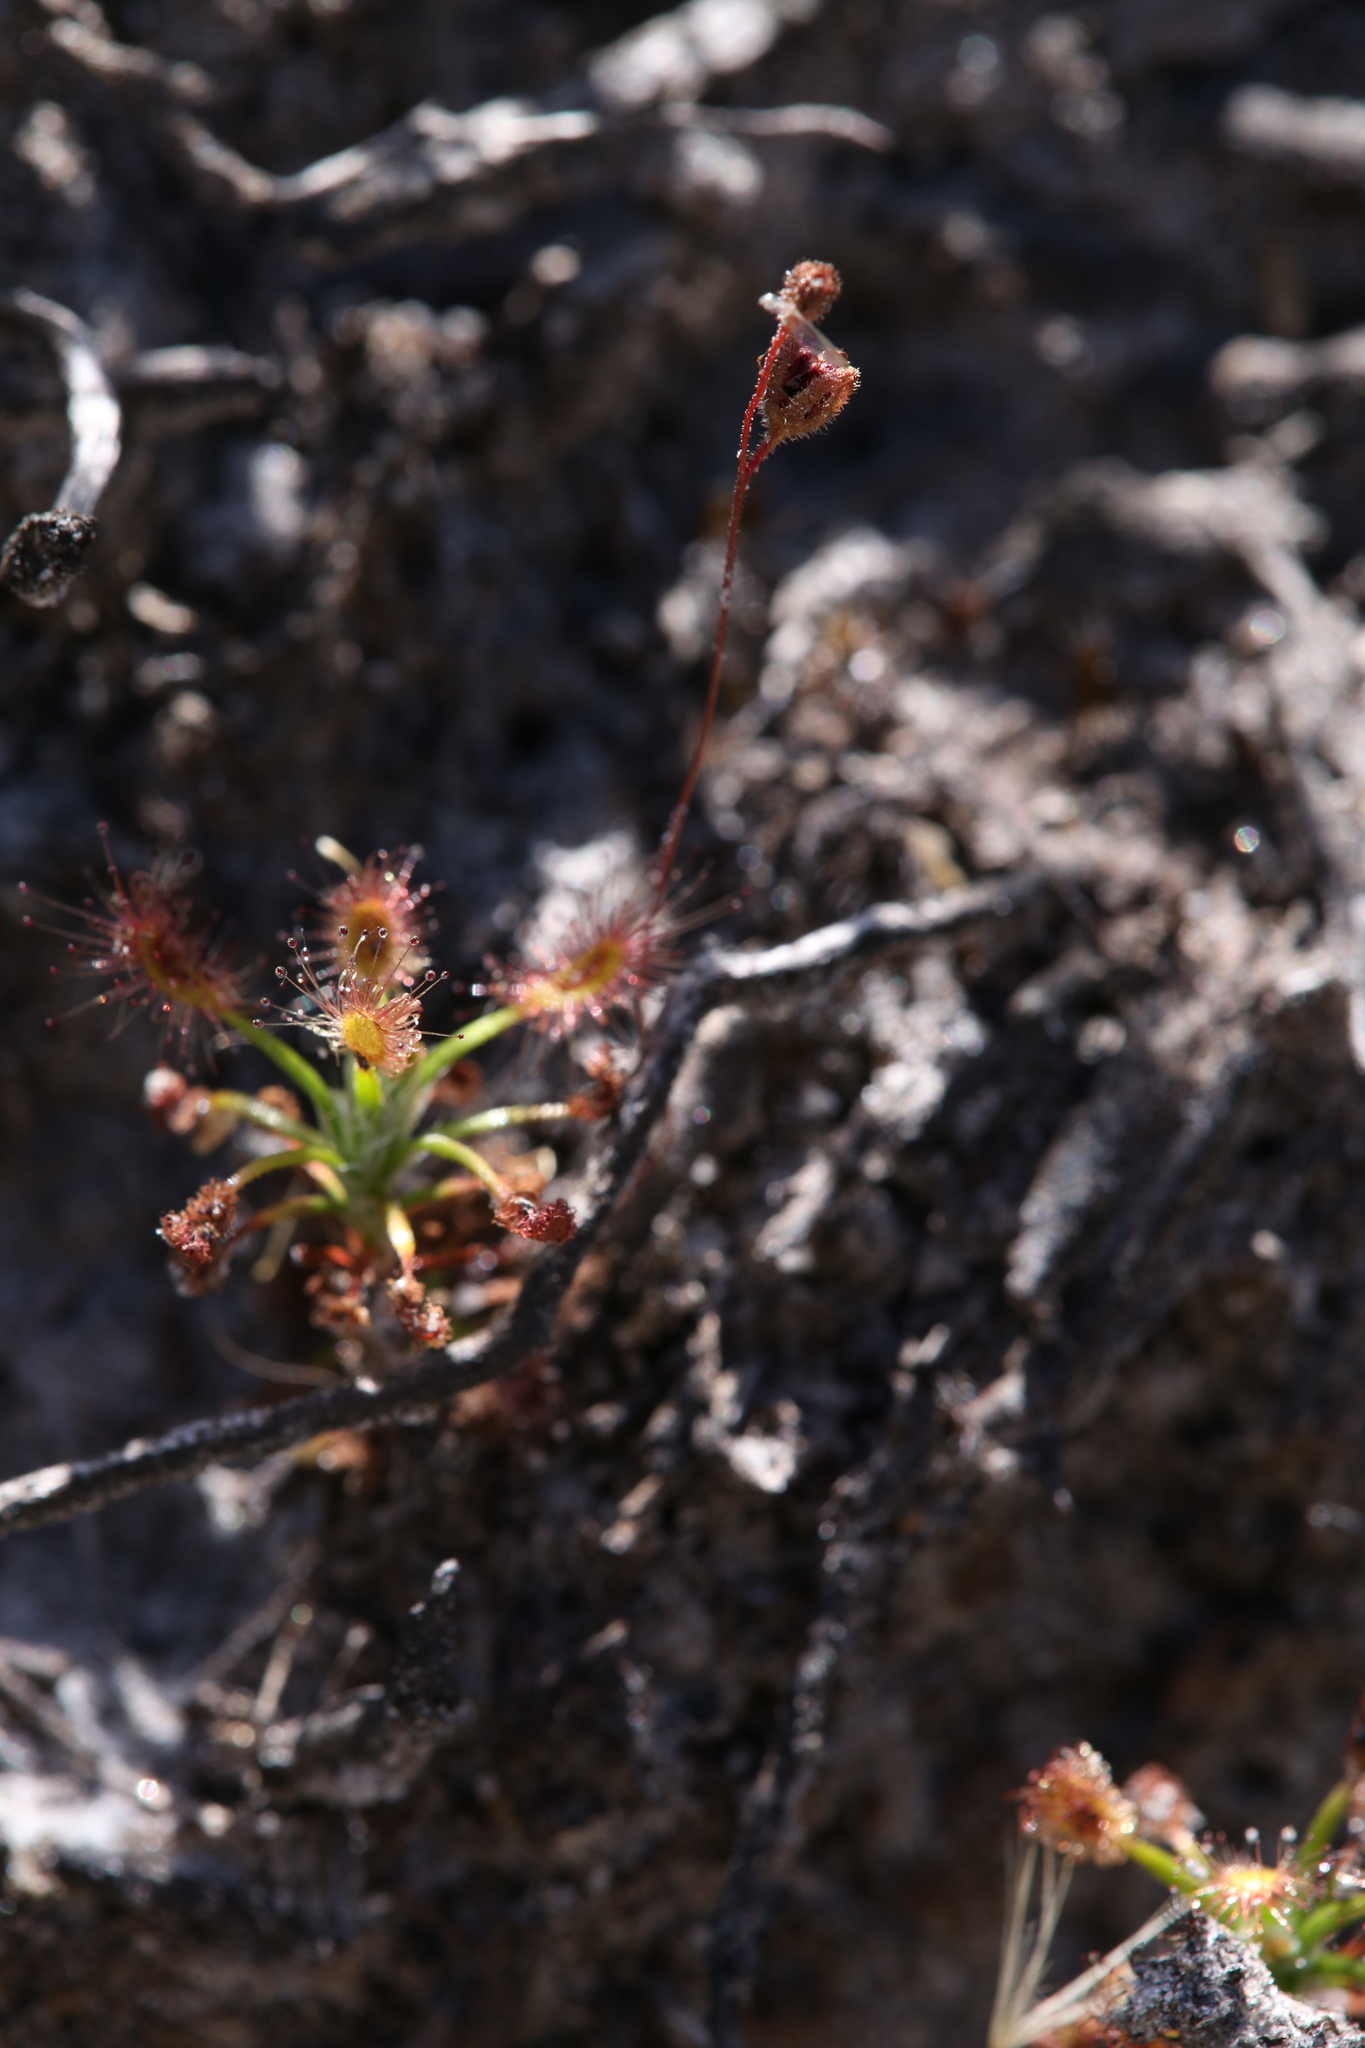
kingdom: Plantae
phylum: Tracheophyta
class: Magnoliopsida
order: Caryophyllales
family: Droseraceae
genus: Drosera
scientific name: Drosera verrucata
